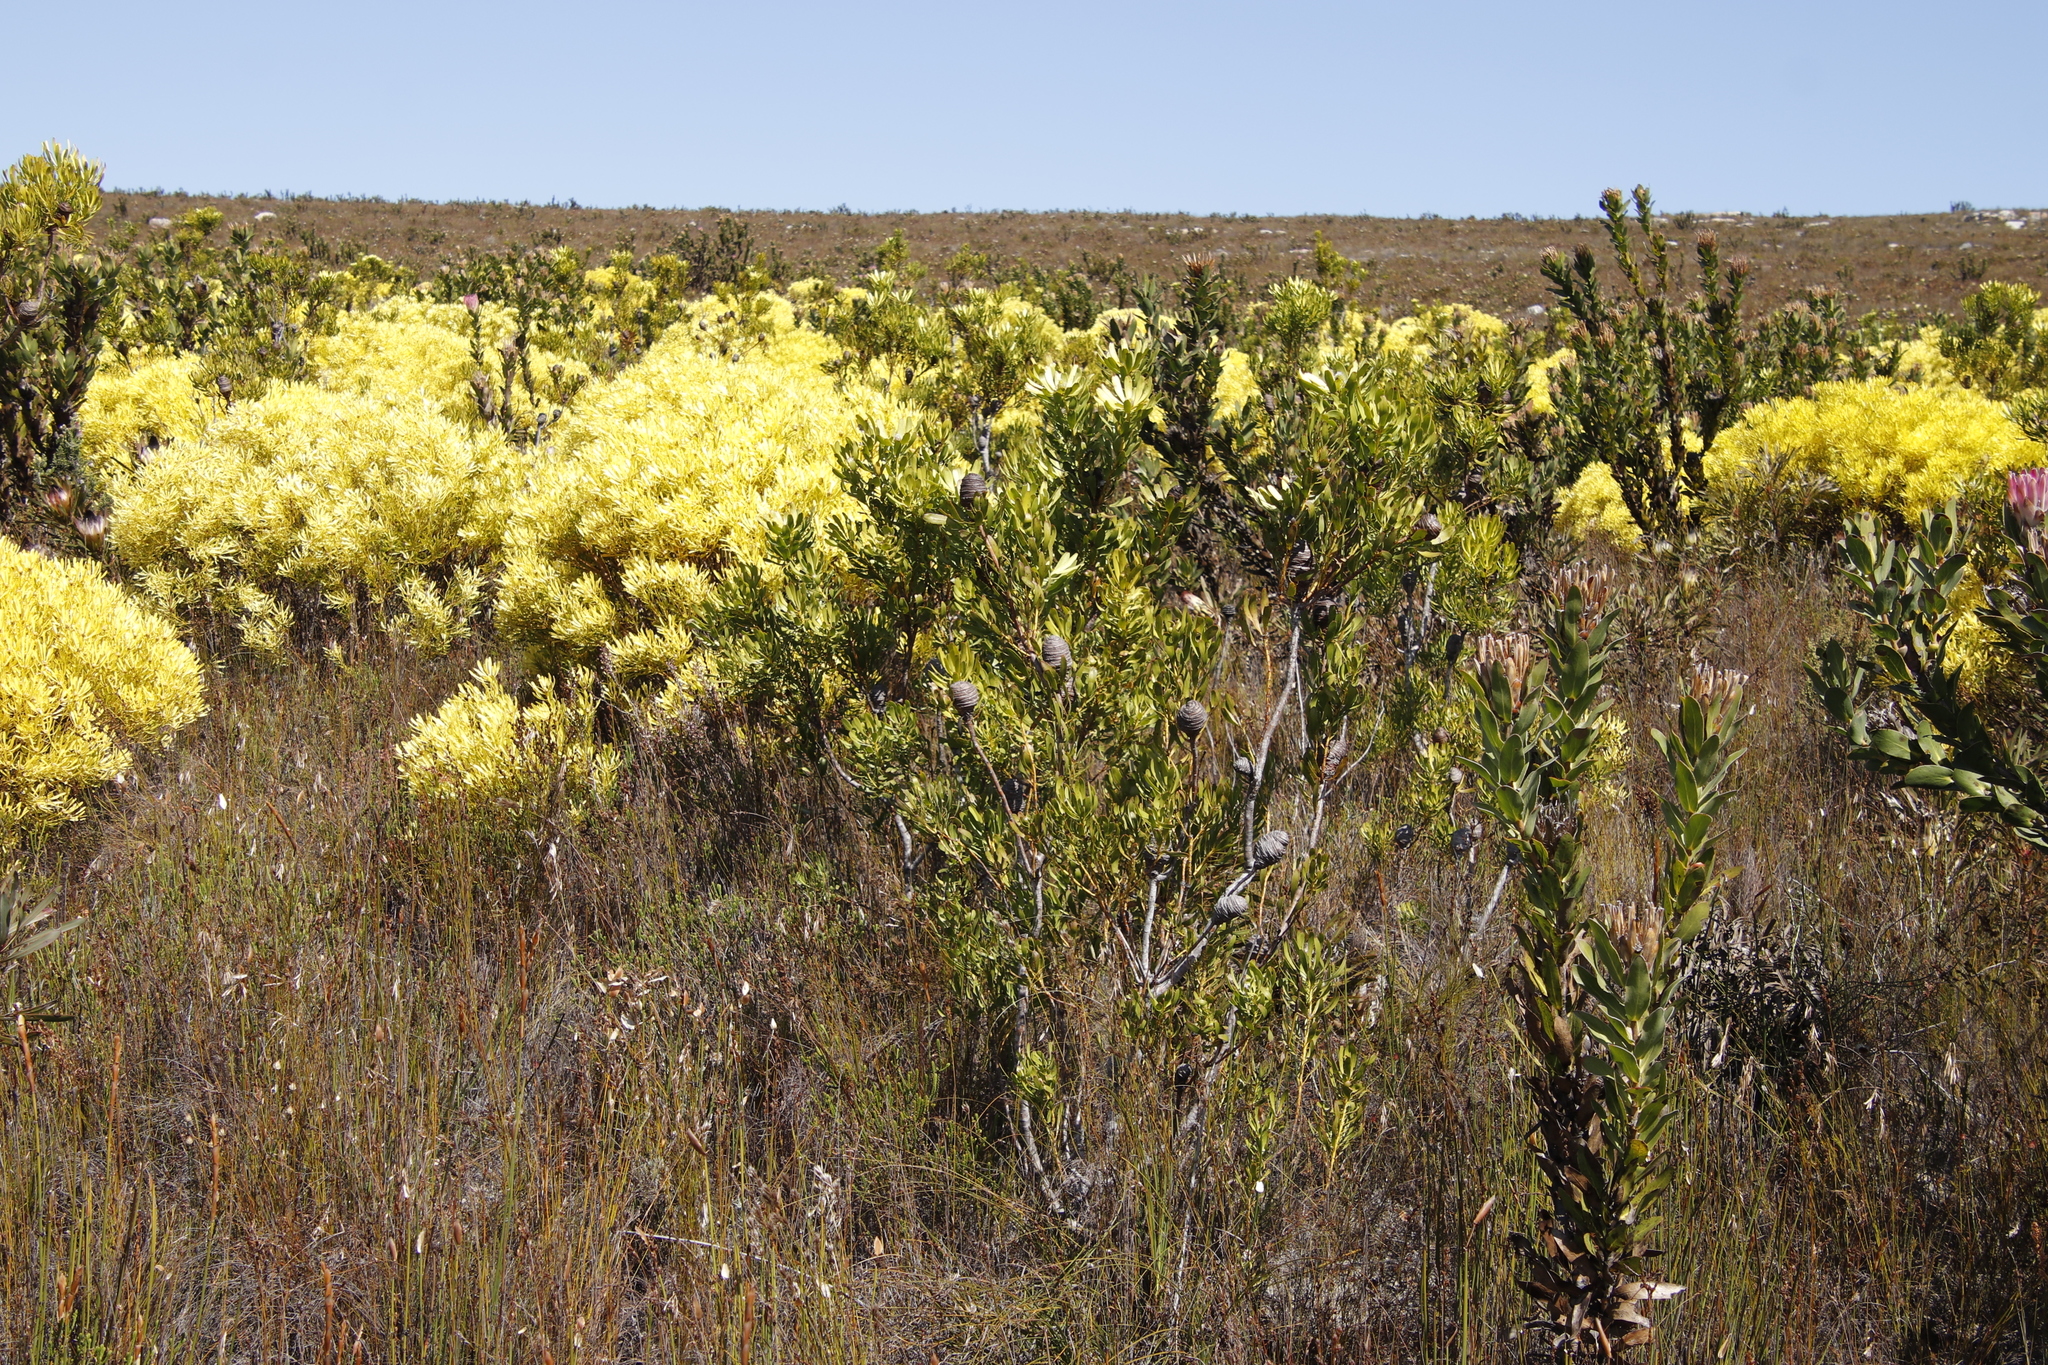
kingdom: Plantae
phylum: Tracheophyta
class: Magnoliopsida
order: Proteales
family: Proteaceae
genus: Leucadendron
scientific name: Leucadendron platyspermum
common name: Plate-seed conebush
